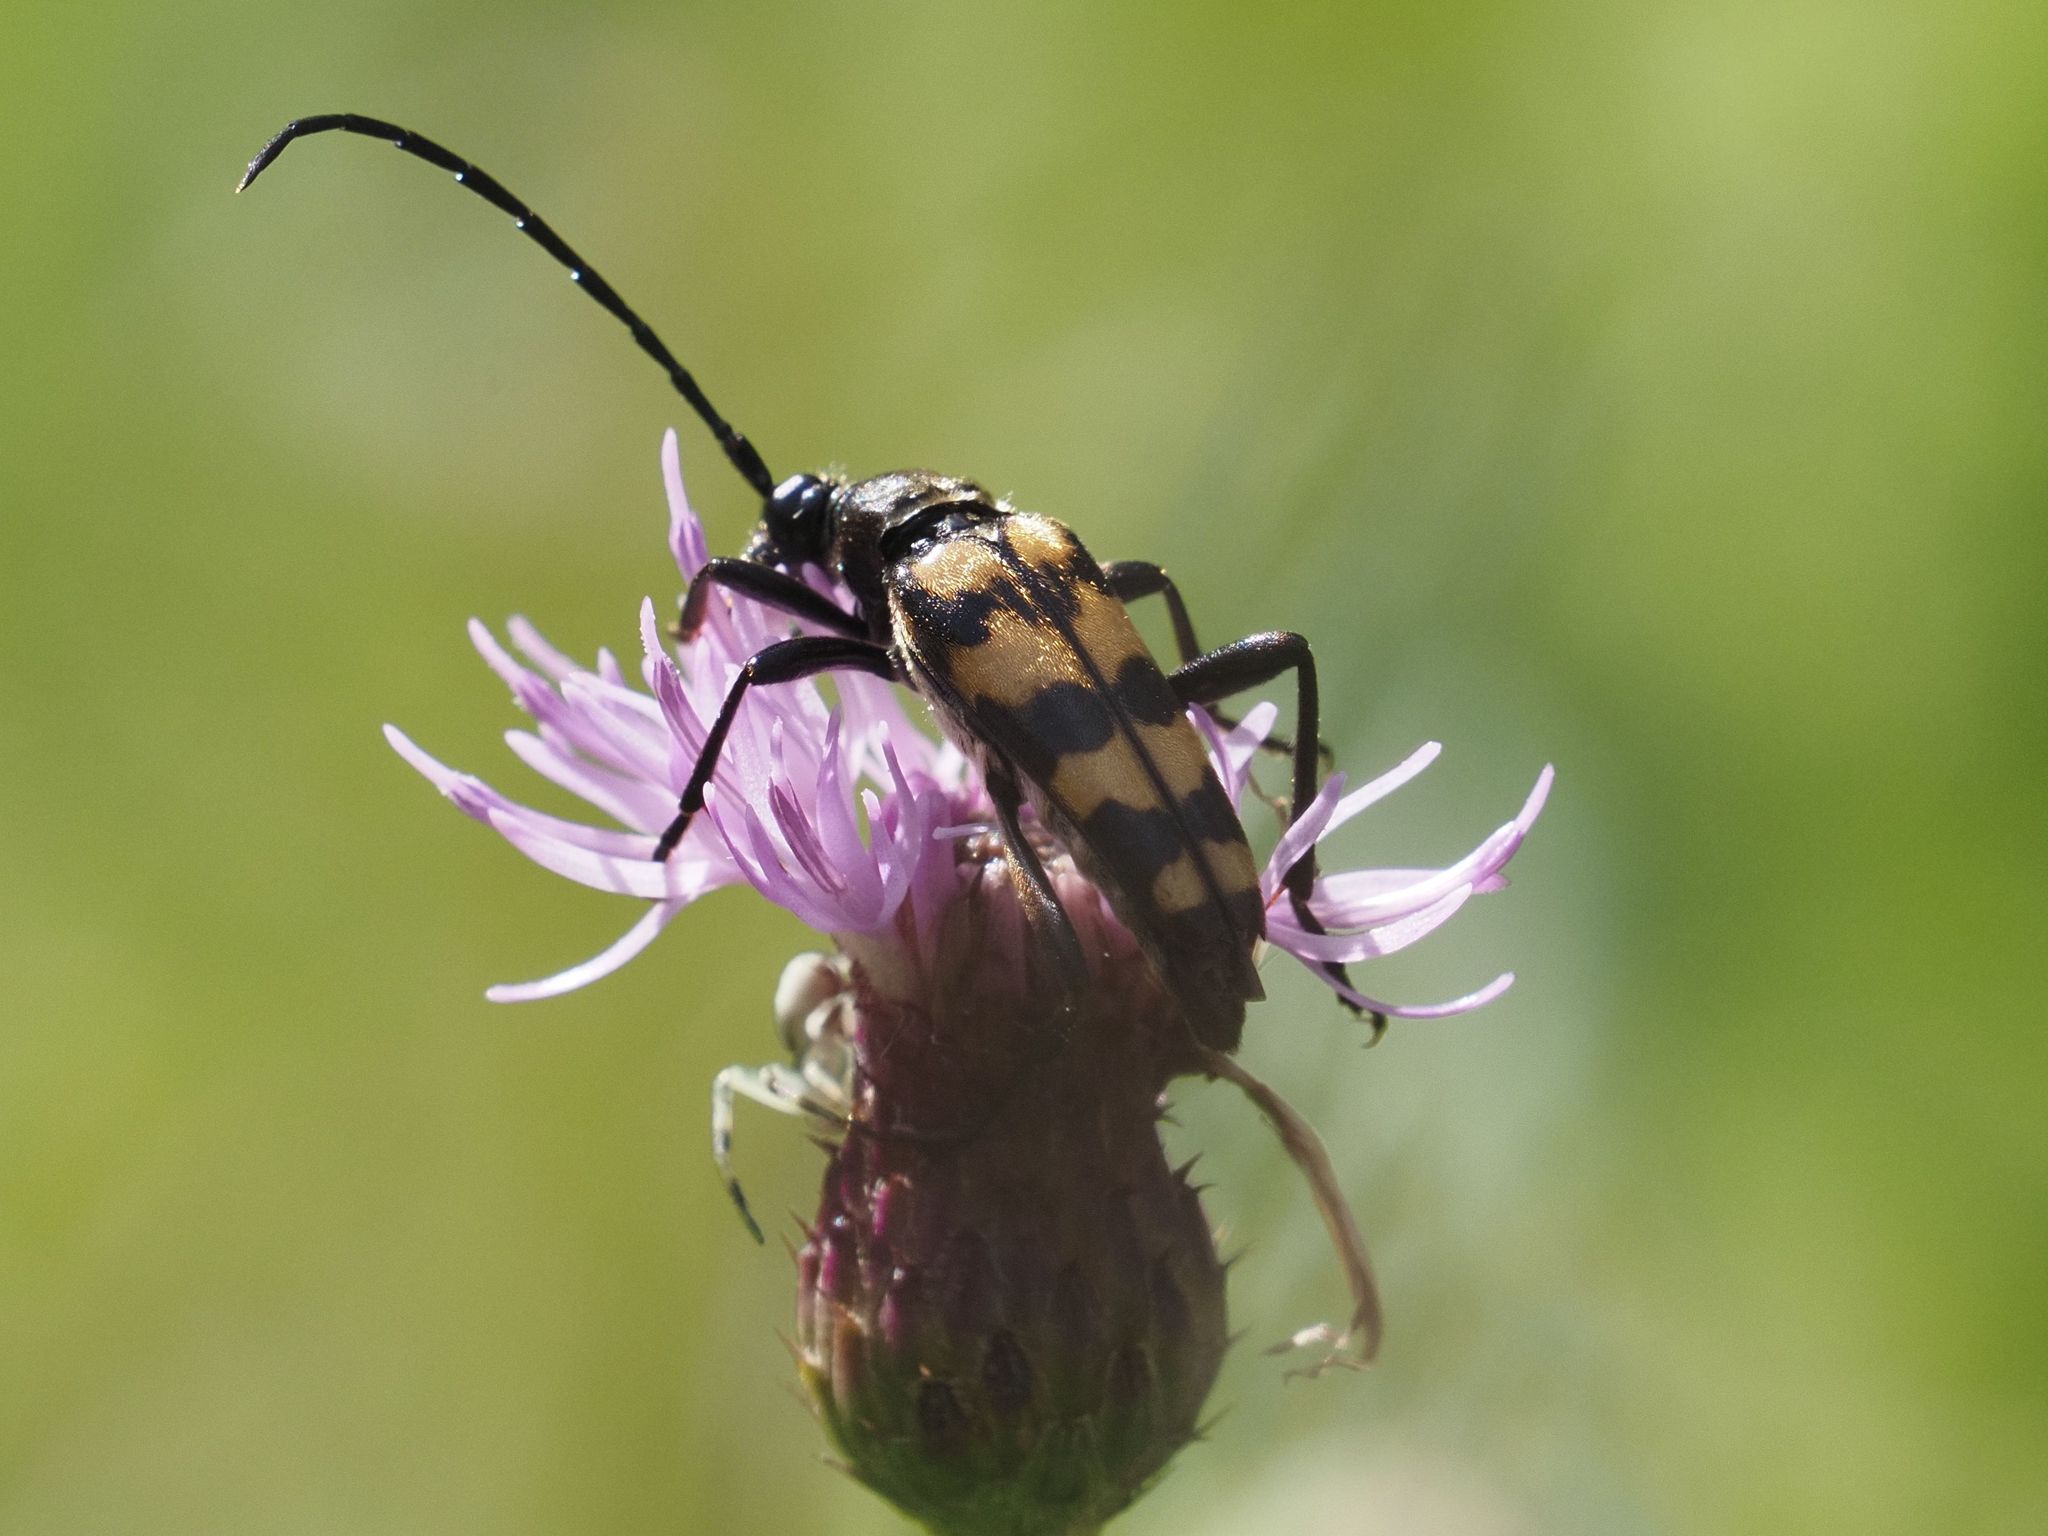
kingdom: Animalia
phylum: Arthropoda
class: Insecta
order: Coleoptera
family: Cerambycidae
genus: Leptura
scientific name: Leptura quadrifasciata
